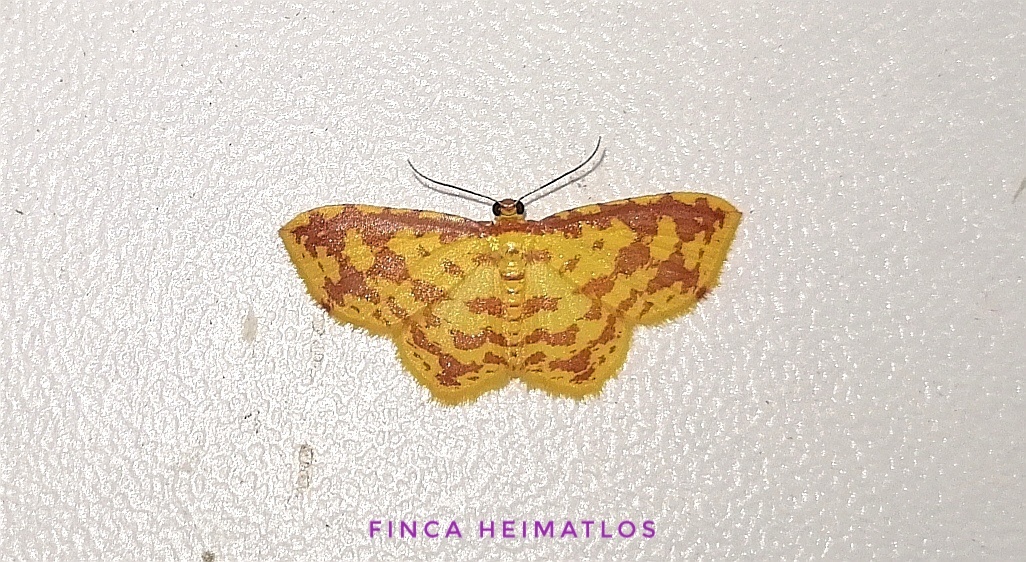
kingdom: Animalia
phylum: Arthropoda
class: Insecta
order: Lepidoptera
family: Geometridae
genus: Eois
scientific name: Eois pararussearia
